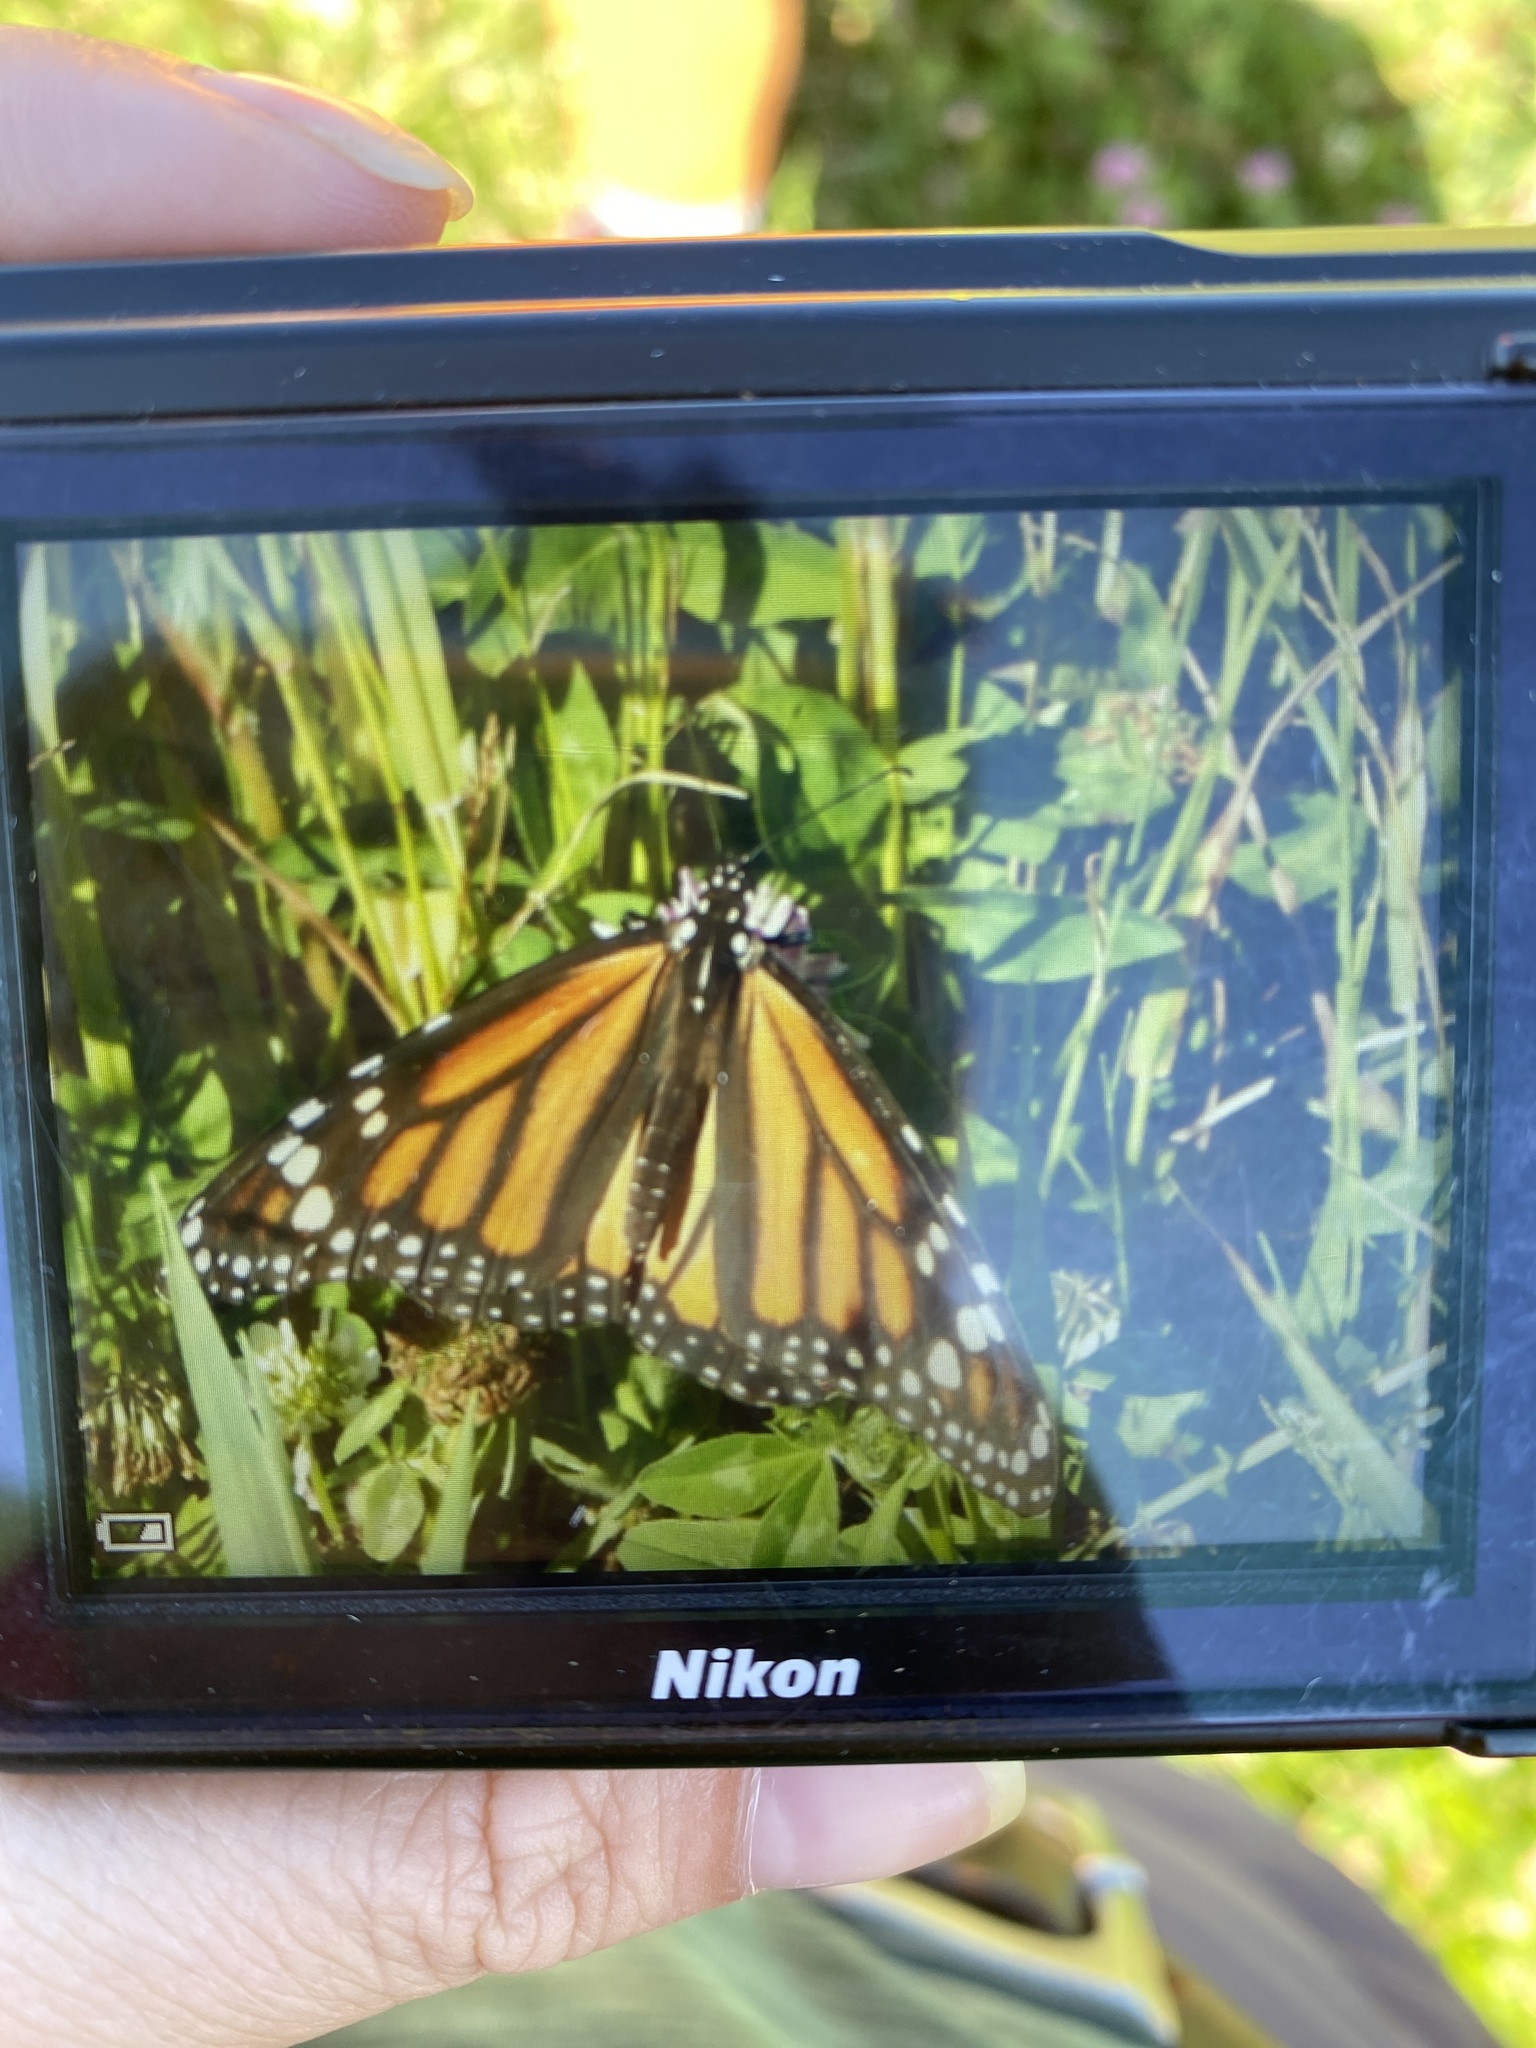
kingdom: Animalia
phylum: Arthropoda
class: Insecta
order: Lepidoptera
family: Nymphalidae
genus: Danaus
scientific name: Danaus plexippus
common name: Monarch
